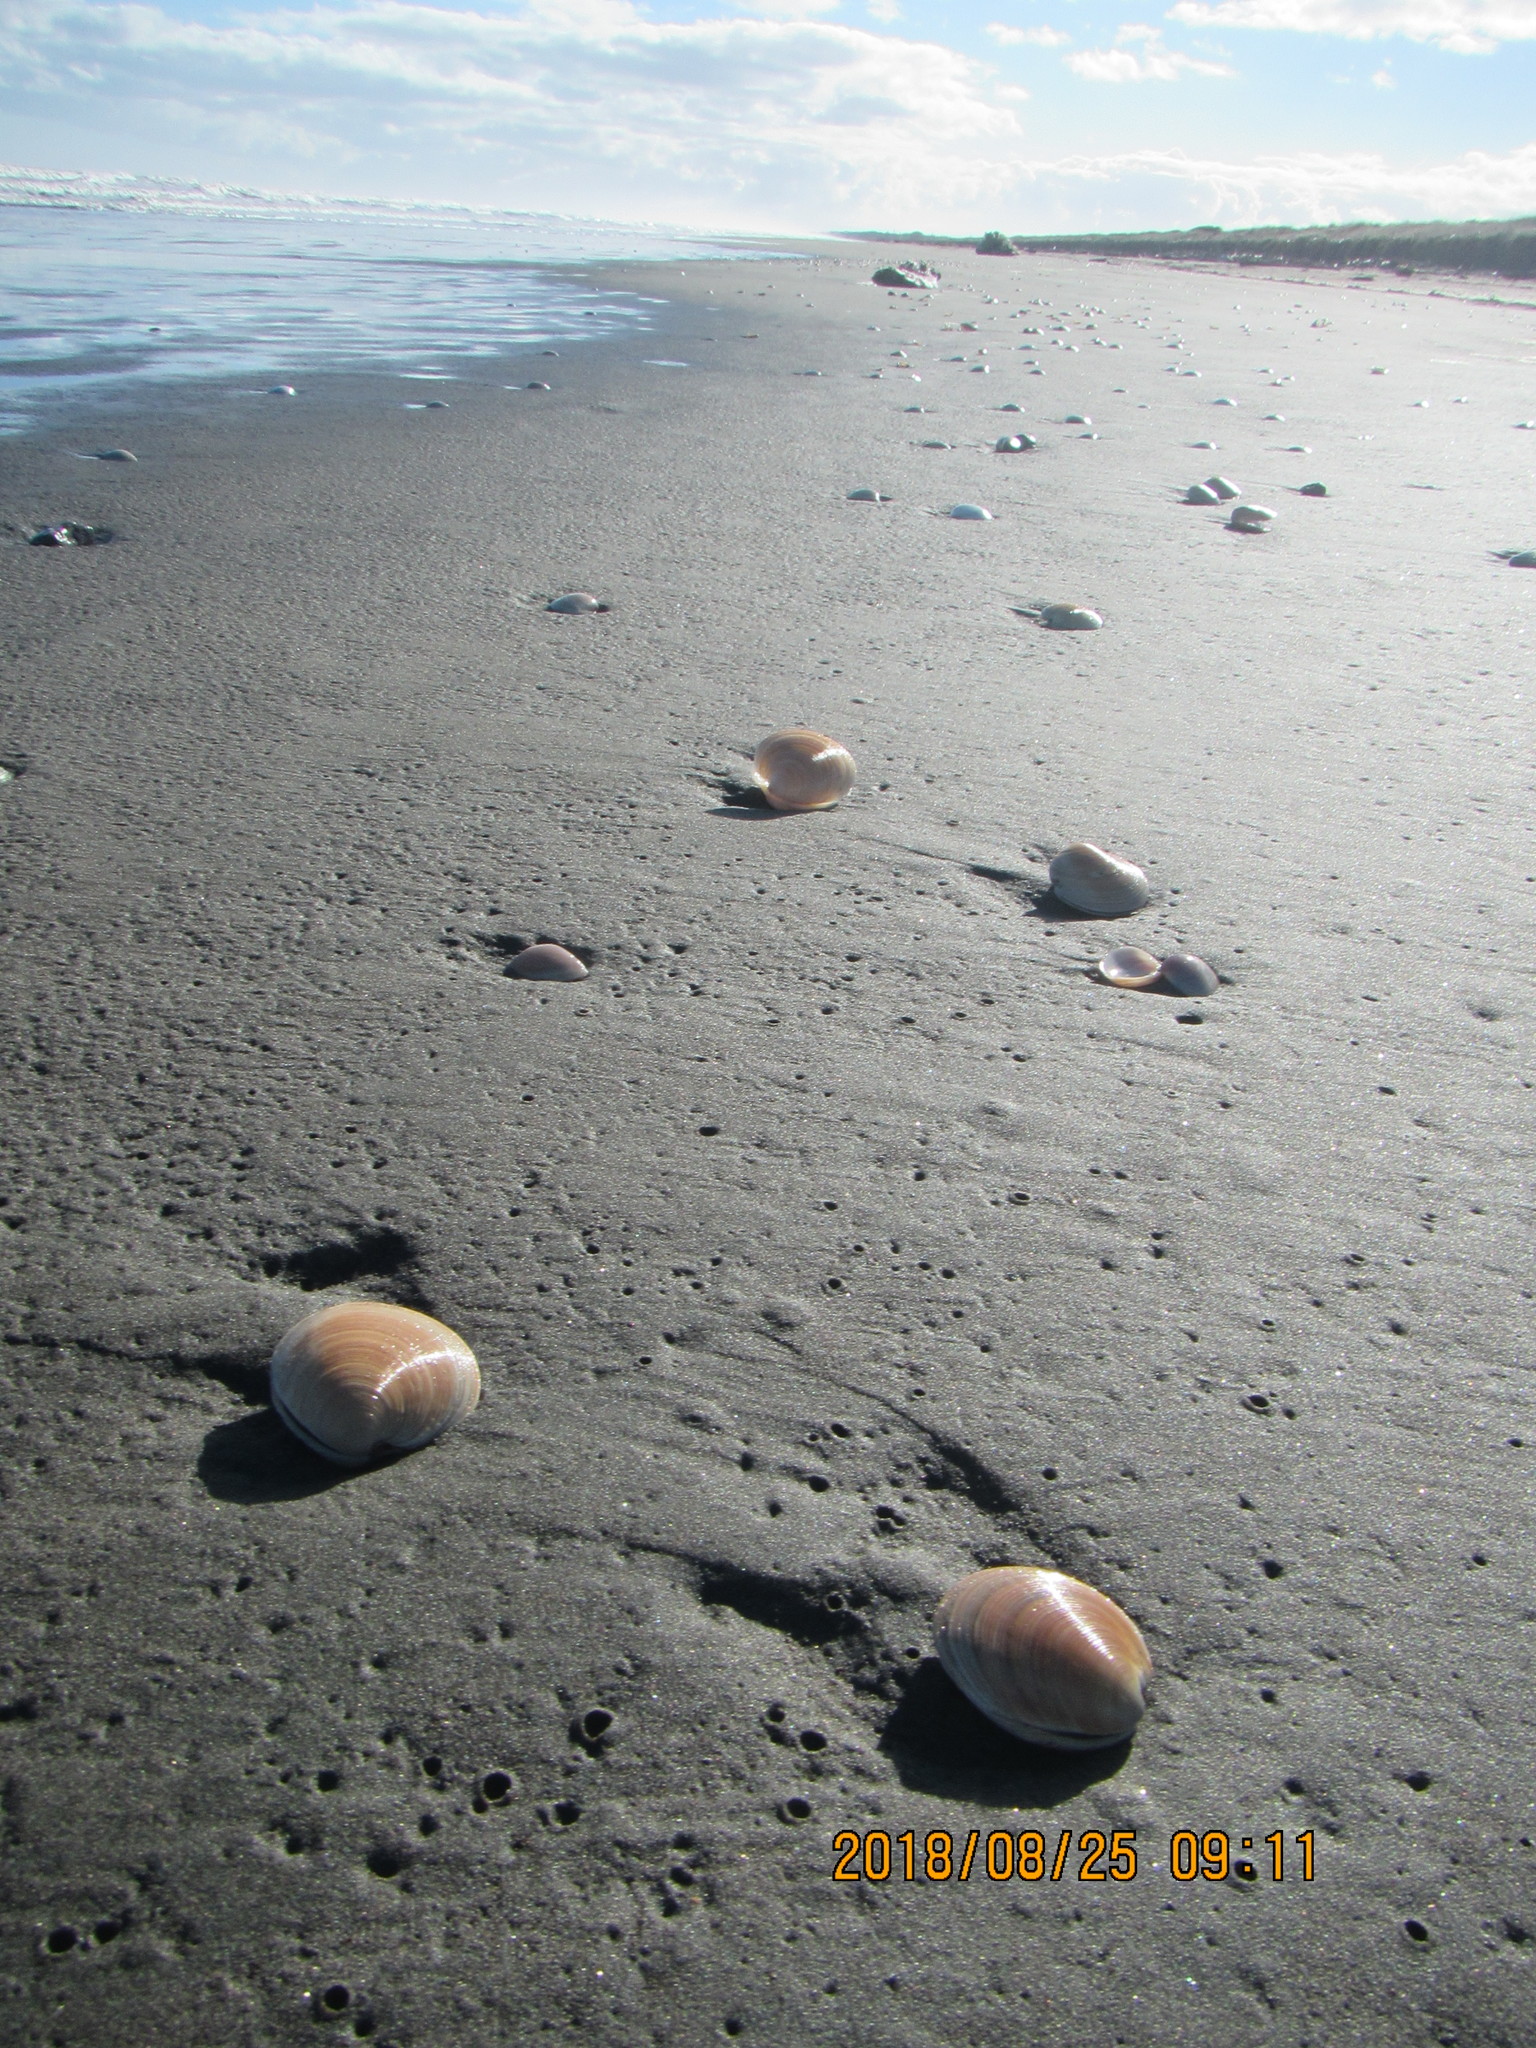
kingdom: Animalia
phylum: Mollusca
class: Bivalvia
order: Venerida
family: Veneridae
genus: Dosinia
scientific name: Dosinia anus
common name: Old-woman dosinia
